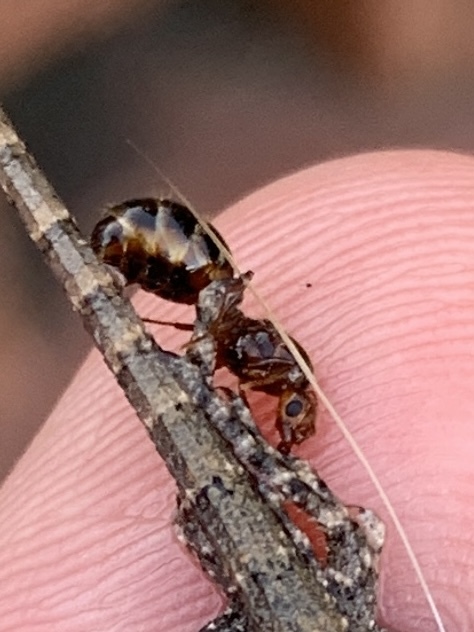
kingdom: Animalia
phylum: Arthropoda
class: Insecta
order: Hymenoptera
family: Formicidae
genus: Solenopsis
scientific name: Solenopsis invicta
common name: Red imported fire ant
